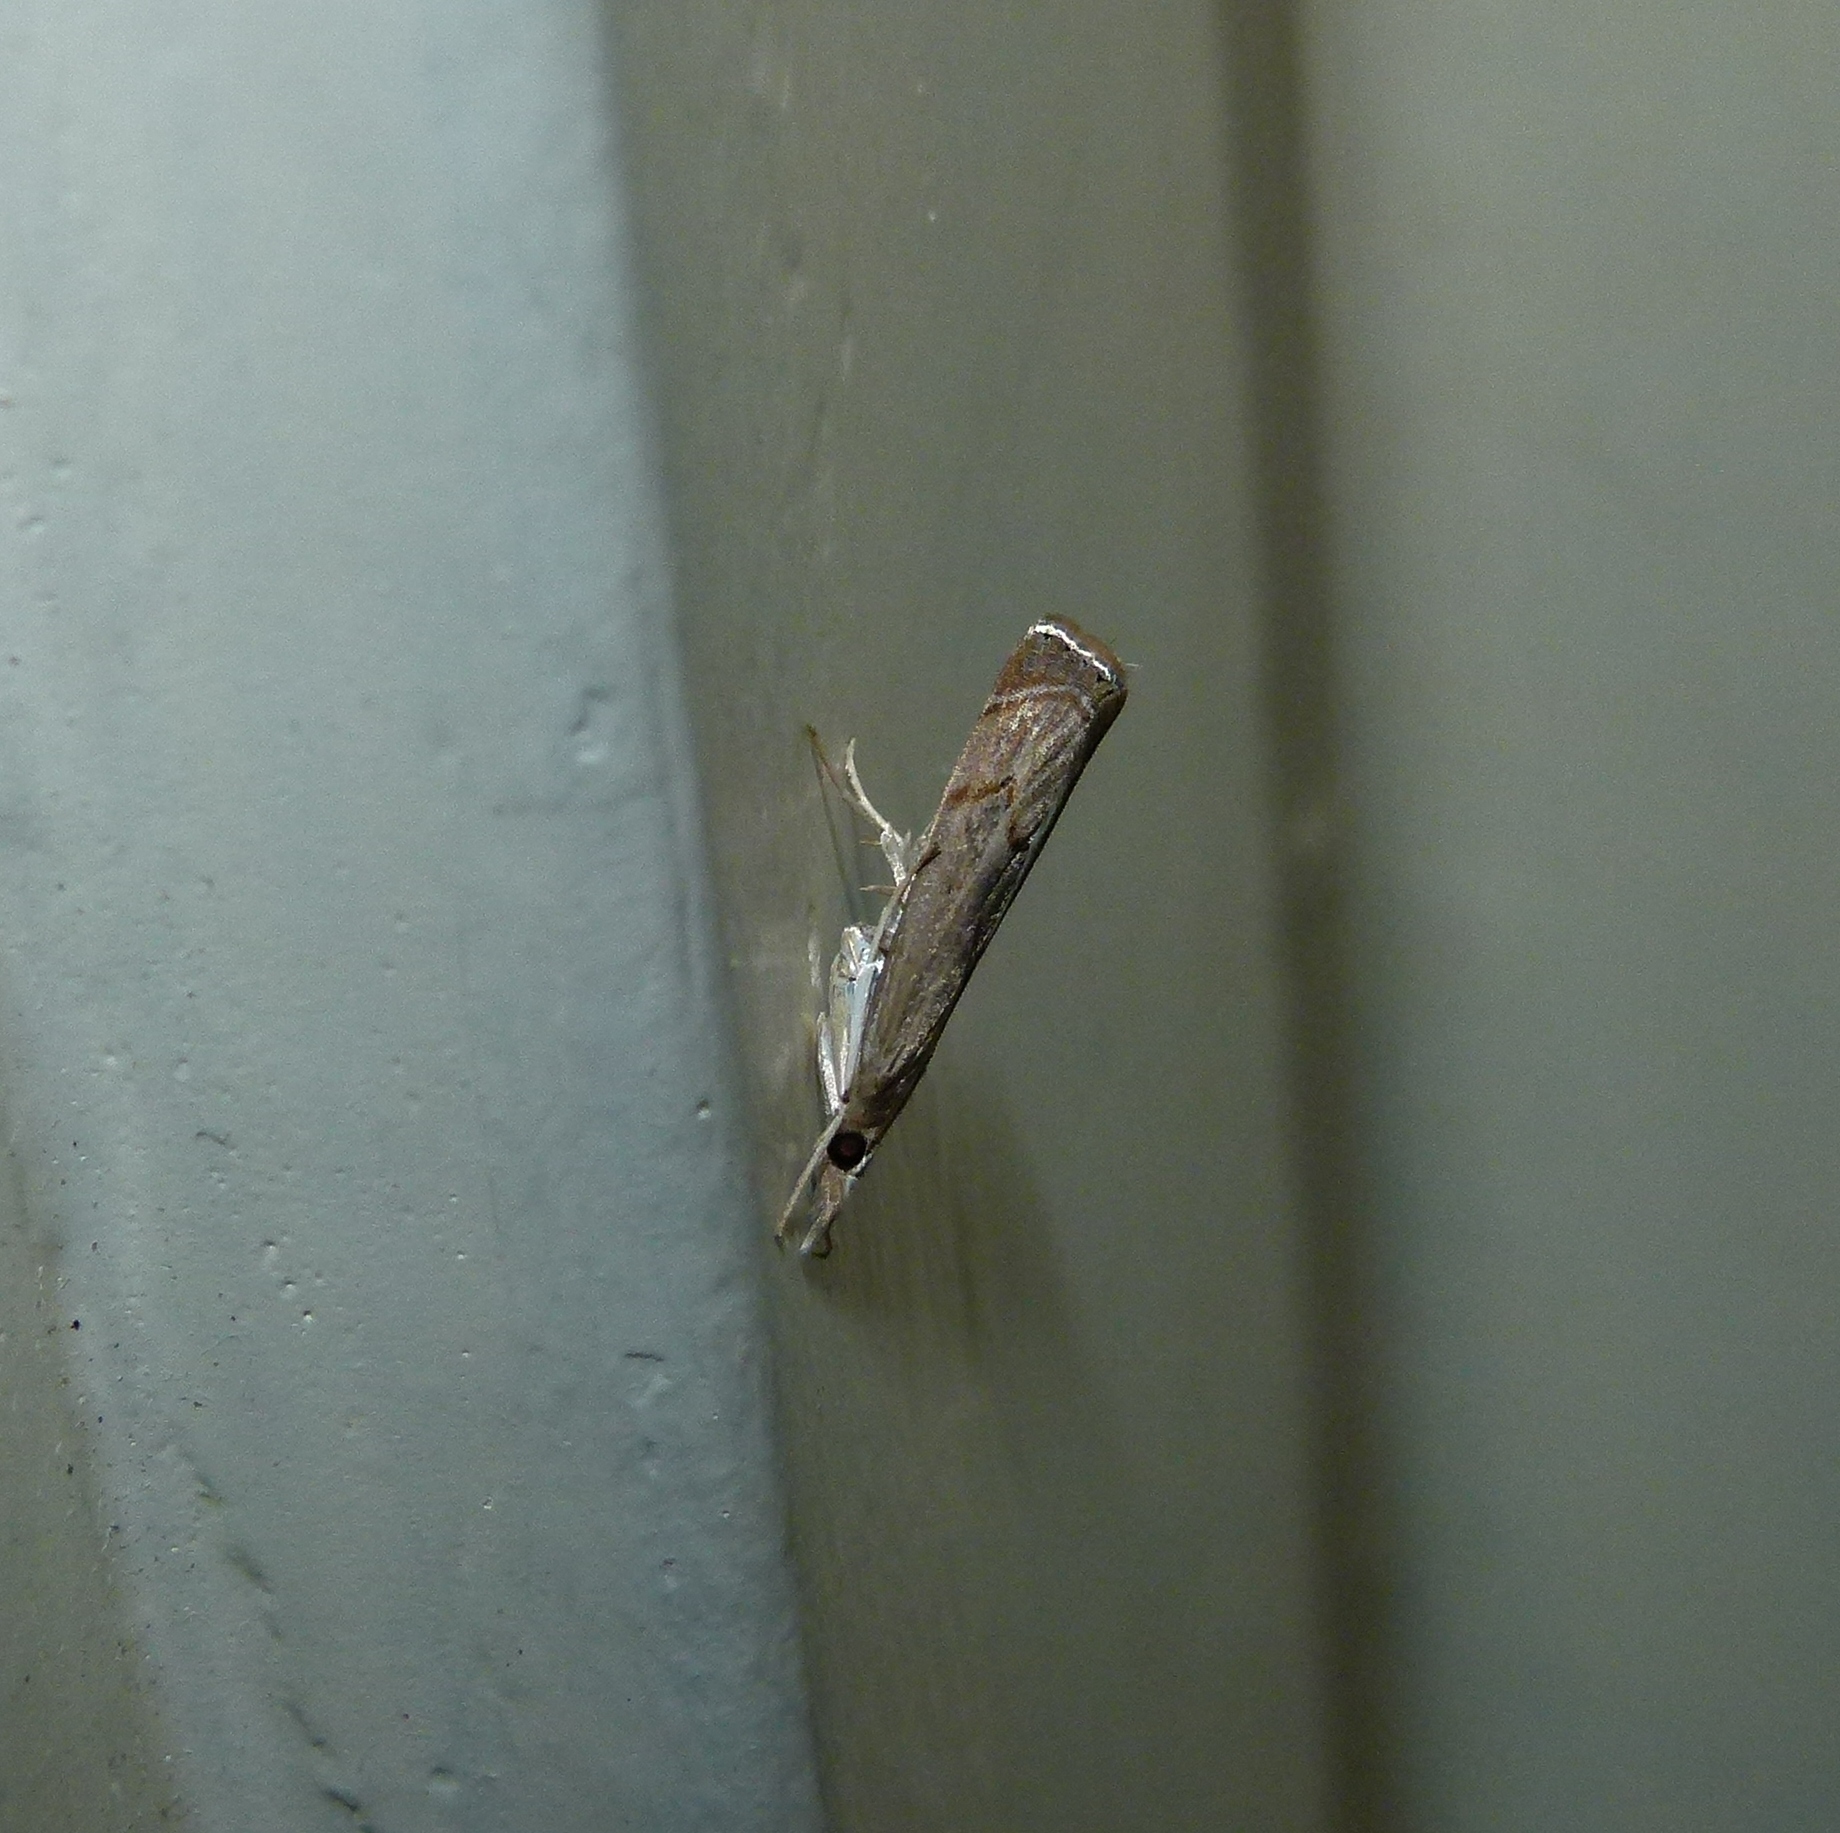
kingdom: Animalia
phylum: Arthropoda
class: Insecta
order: Lepidoptera
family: Crambidae
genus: Parapediasia
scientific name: Parapediasia teterellus
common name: Bluegrass webworm moth
